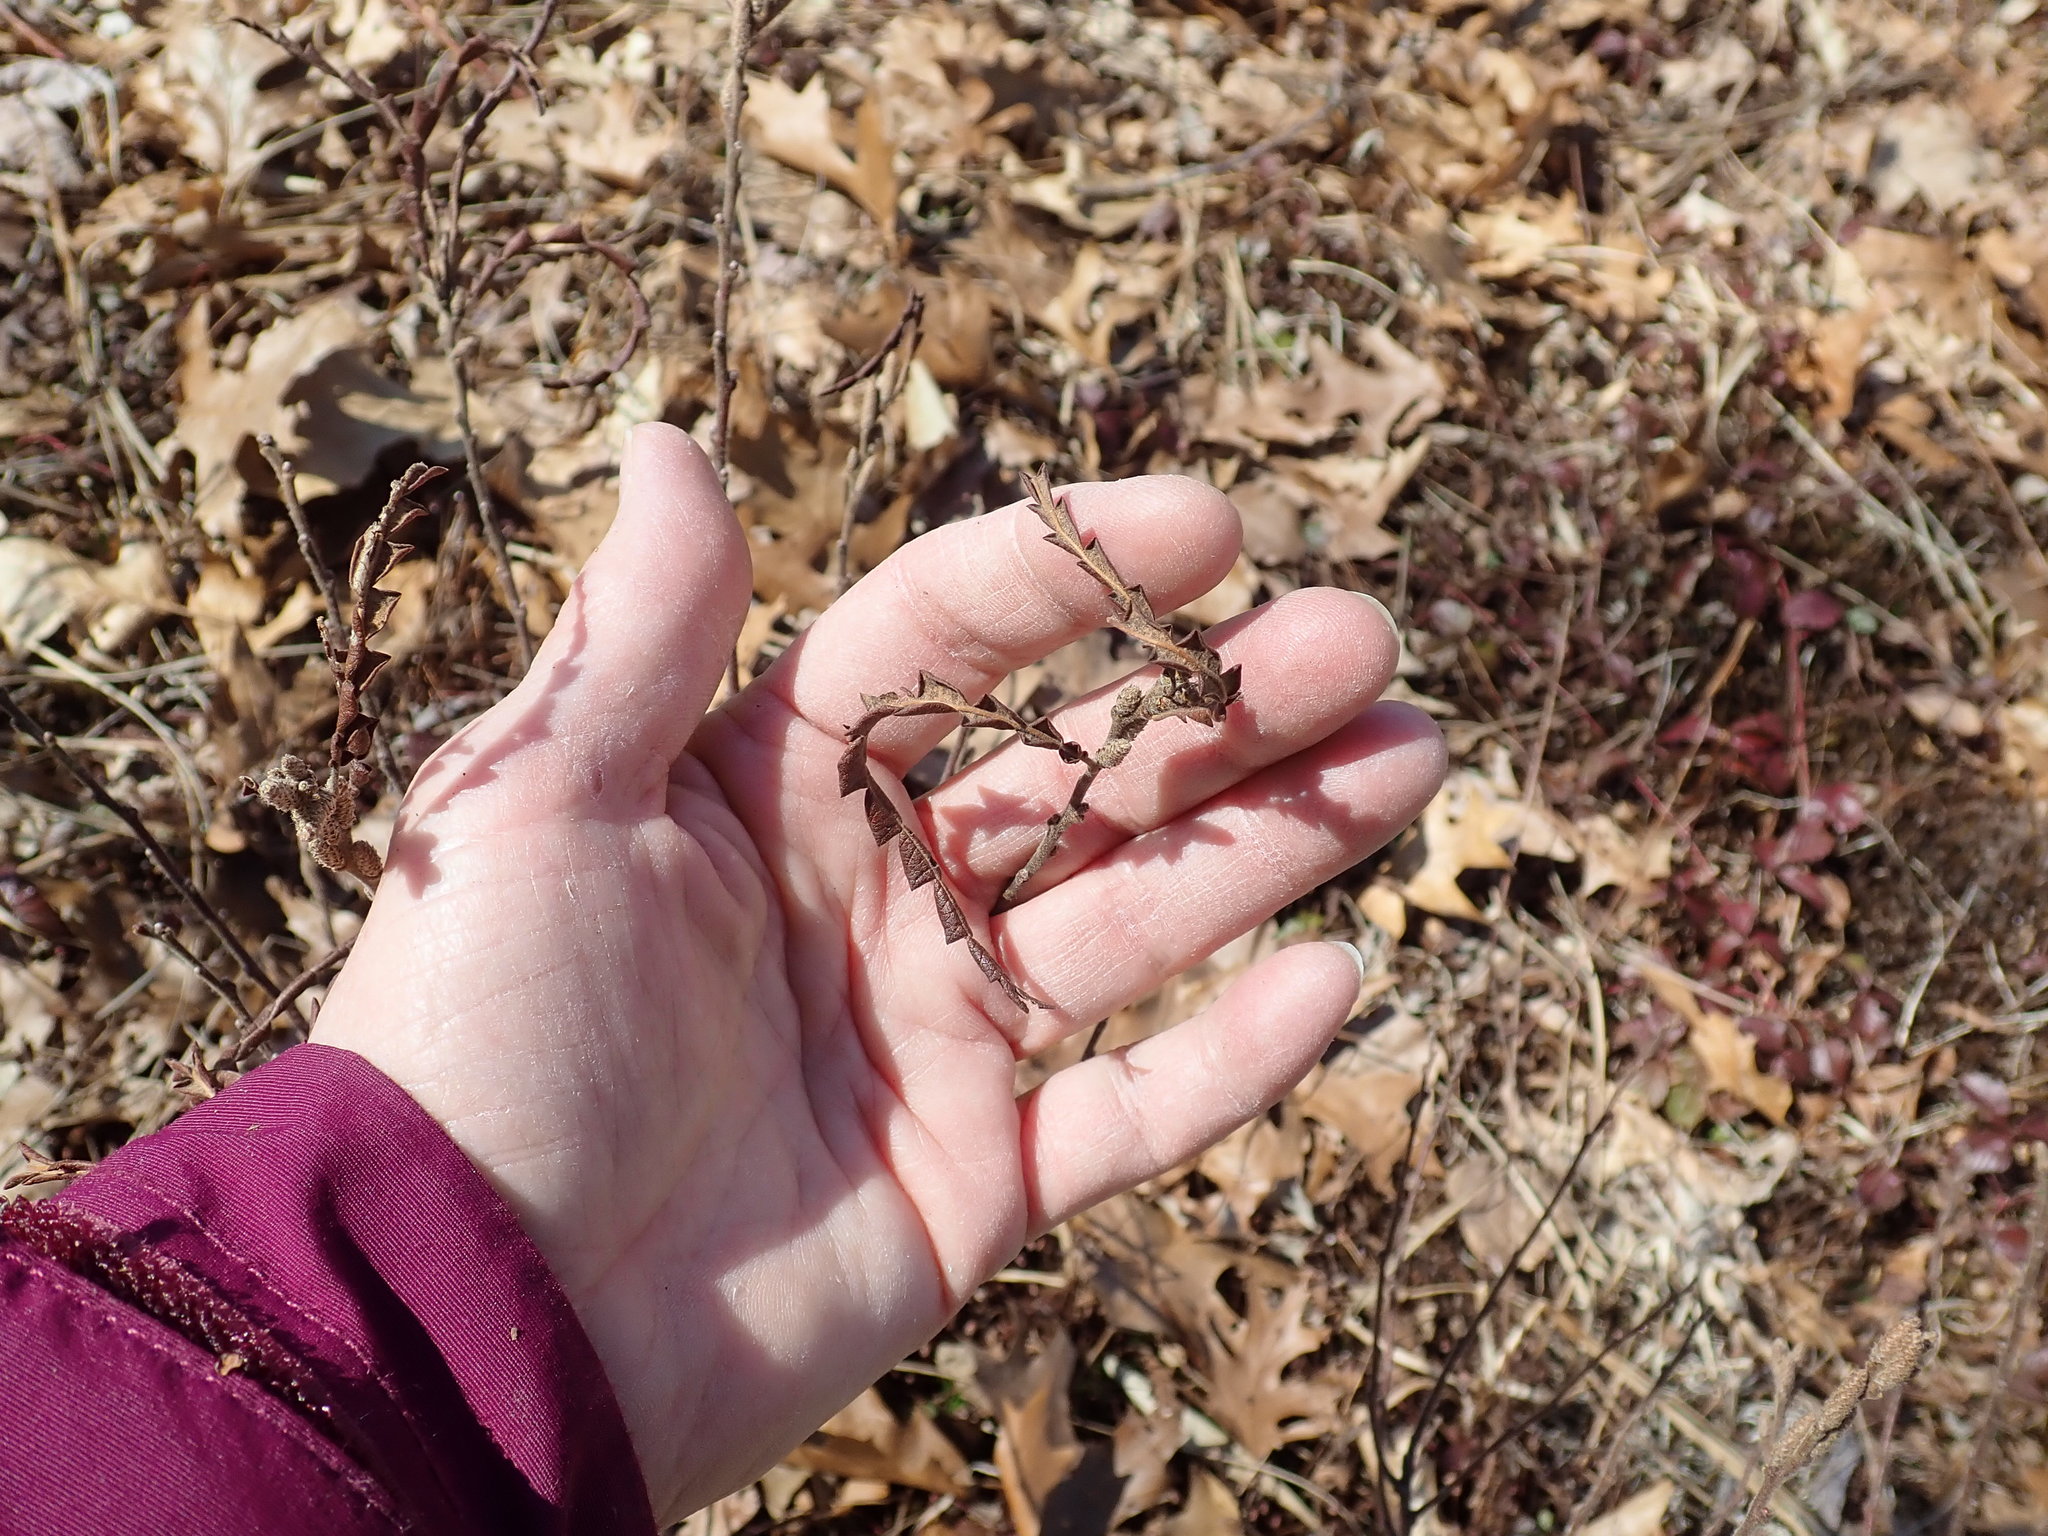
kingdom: Plantae
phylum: Tracheophyta
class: Magnoliopsida
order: Fagales
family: Myricaceae
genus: Comptonia
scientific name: Comptonia peregrina
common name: Sweet-fern
